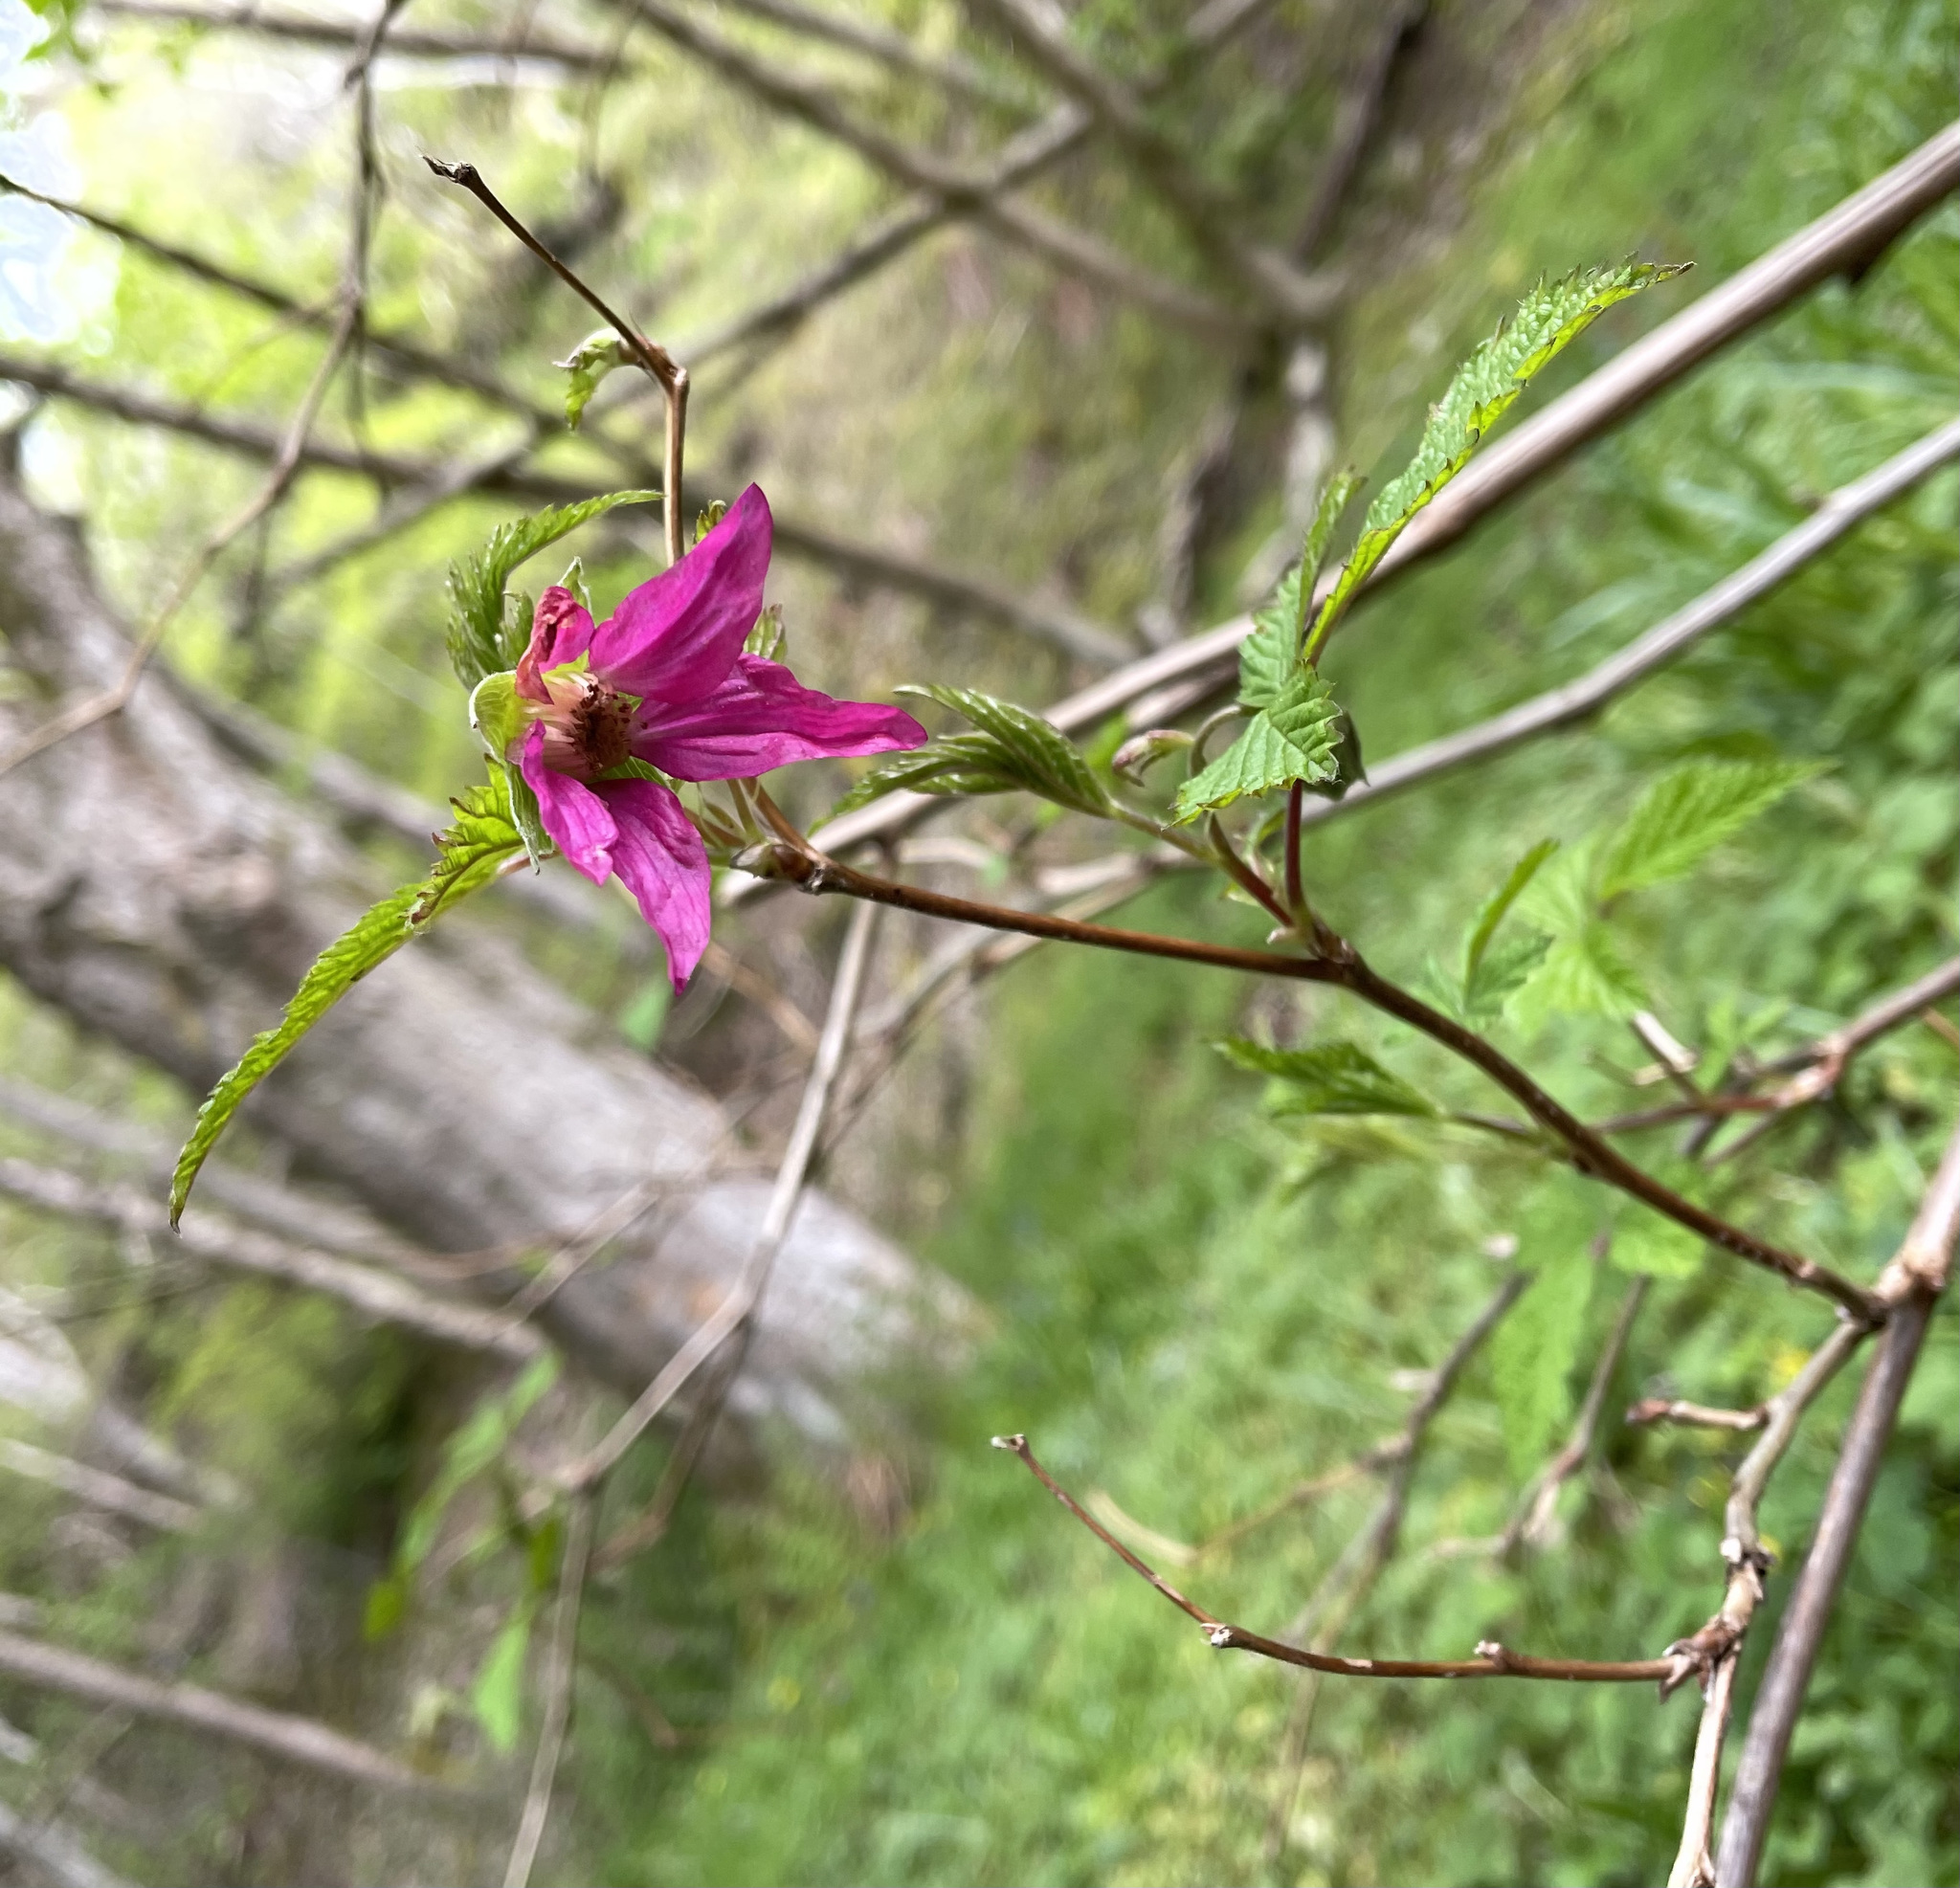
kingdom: Plantae
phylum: Tracheophyta
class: Magnoliopsida
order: Rosales
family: Rosaceae
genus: Rubus
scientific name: Rubus spectabilis
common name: Salmonberry
